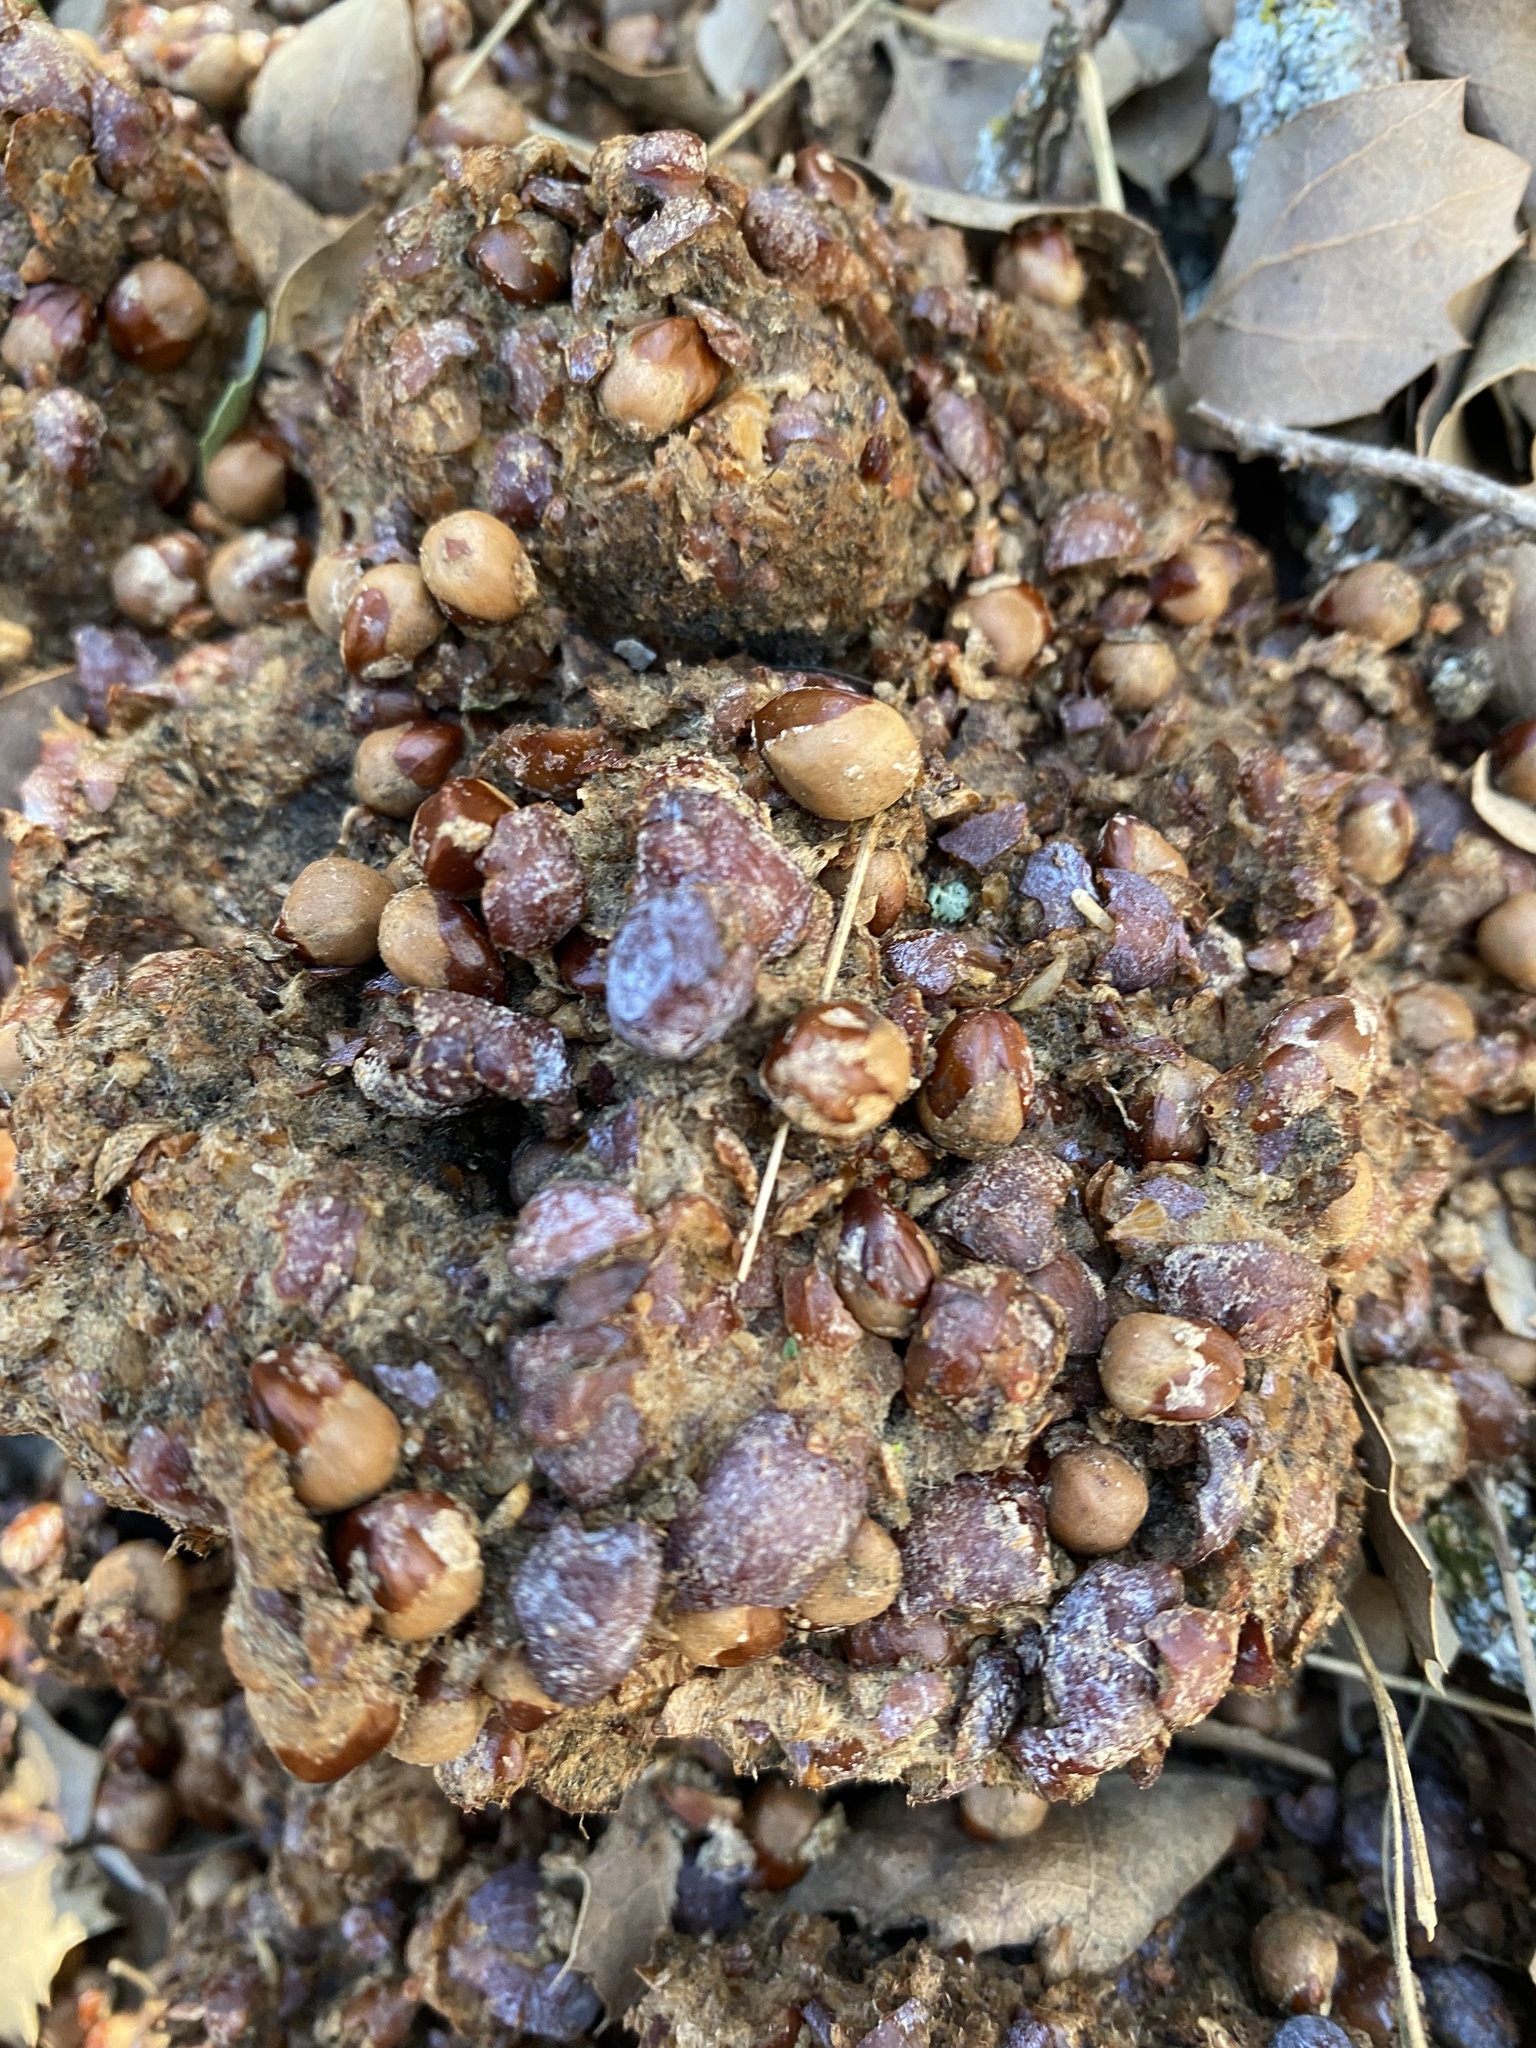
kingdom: Animalia
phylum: Chordata
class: Mammalia
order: Carnivora
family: Ursidae
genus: Ursus
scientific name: Ursus americanus
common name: American black bear
